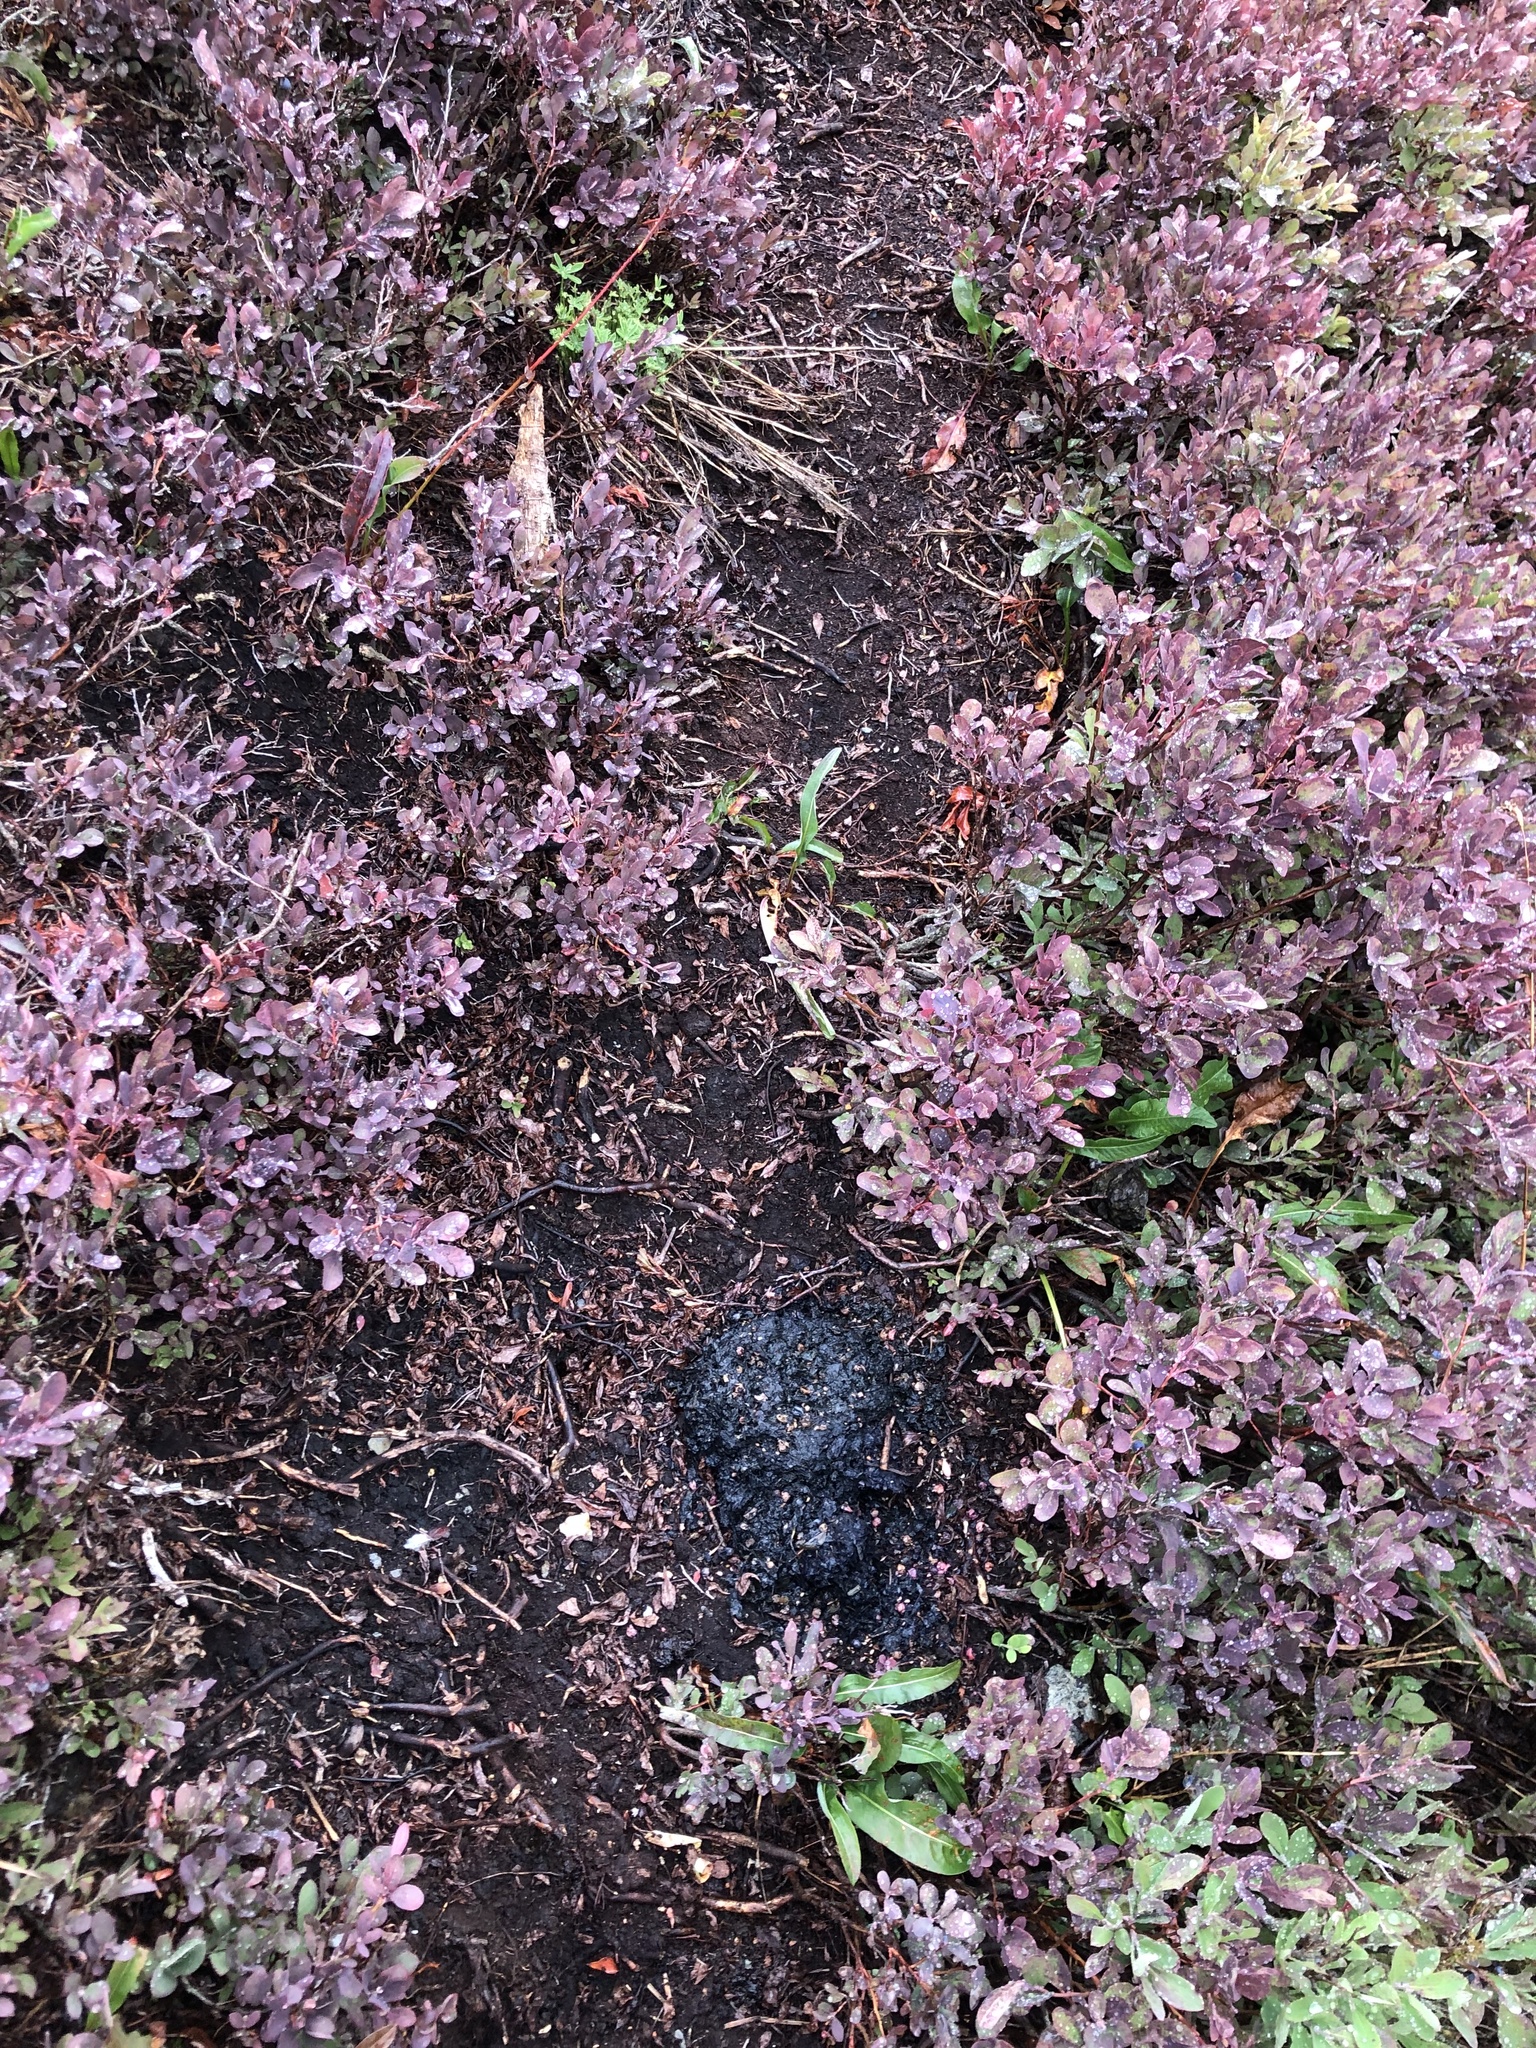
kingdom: Animalia
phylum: Chordata
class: Mammalia
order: Carnivora
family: Ursidae
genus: Ursus
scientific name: Ursus americanus
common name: American black bear
